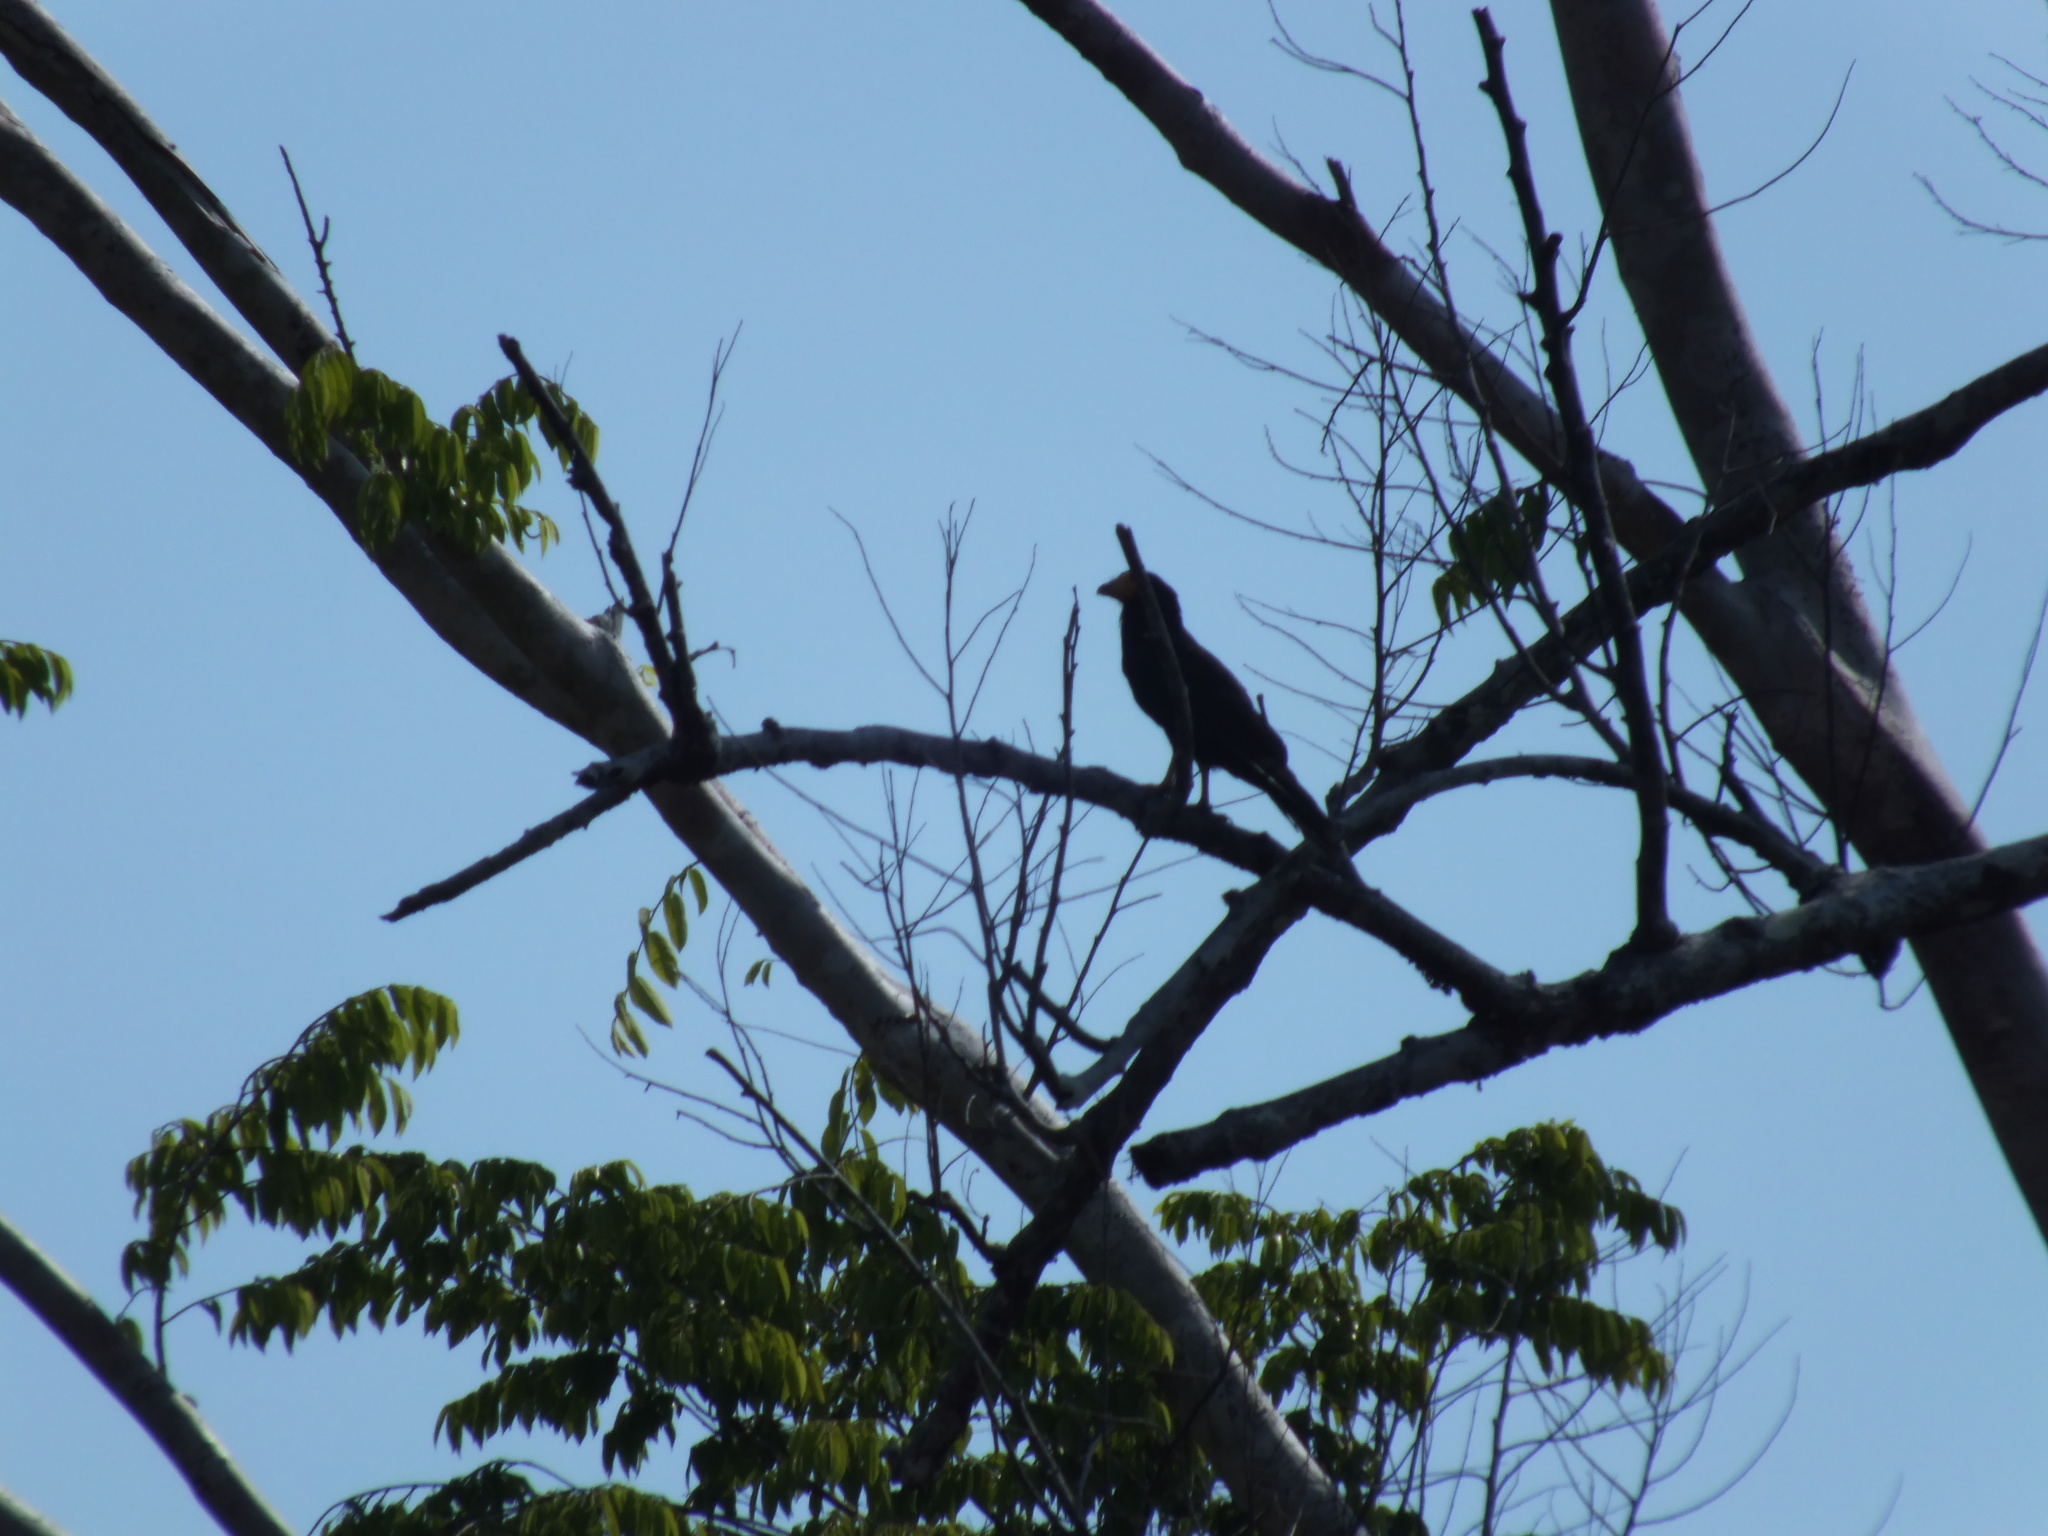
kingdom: Animalia
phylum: Chordata
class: Aves
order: Falconiformes
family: Falconidae
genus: Daptrius
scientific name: Daptrius ater
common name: Black caracara
